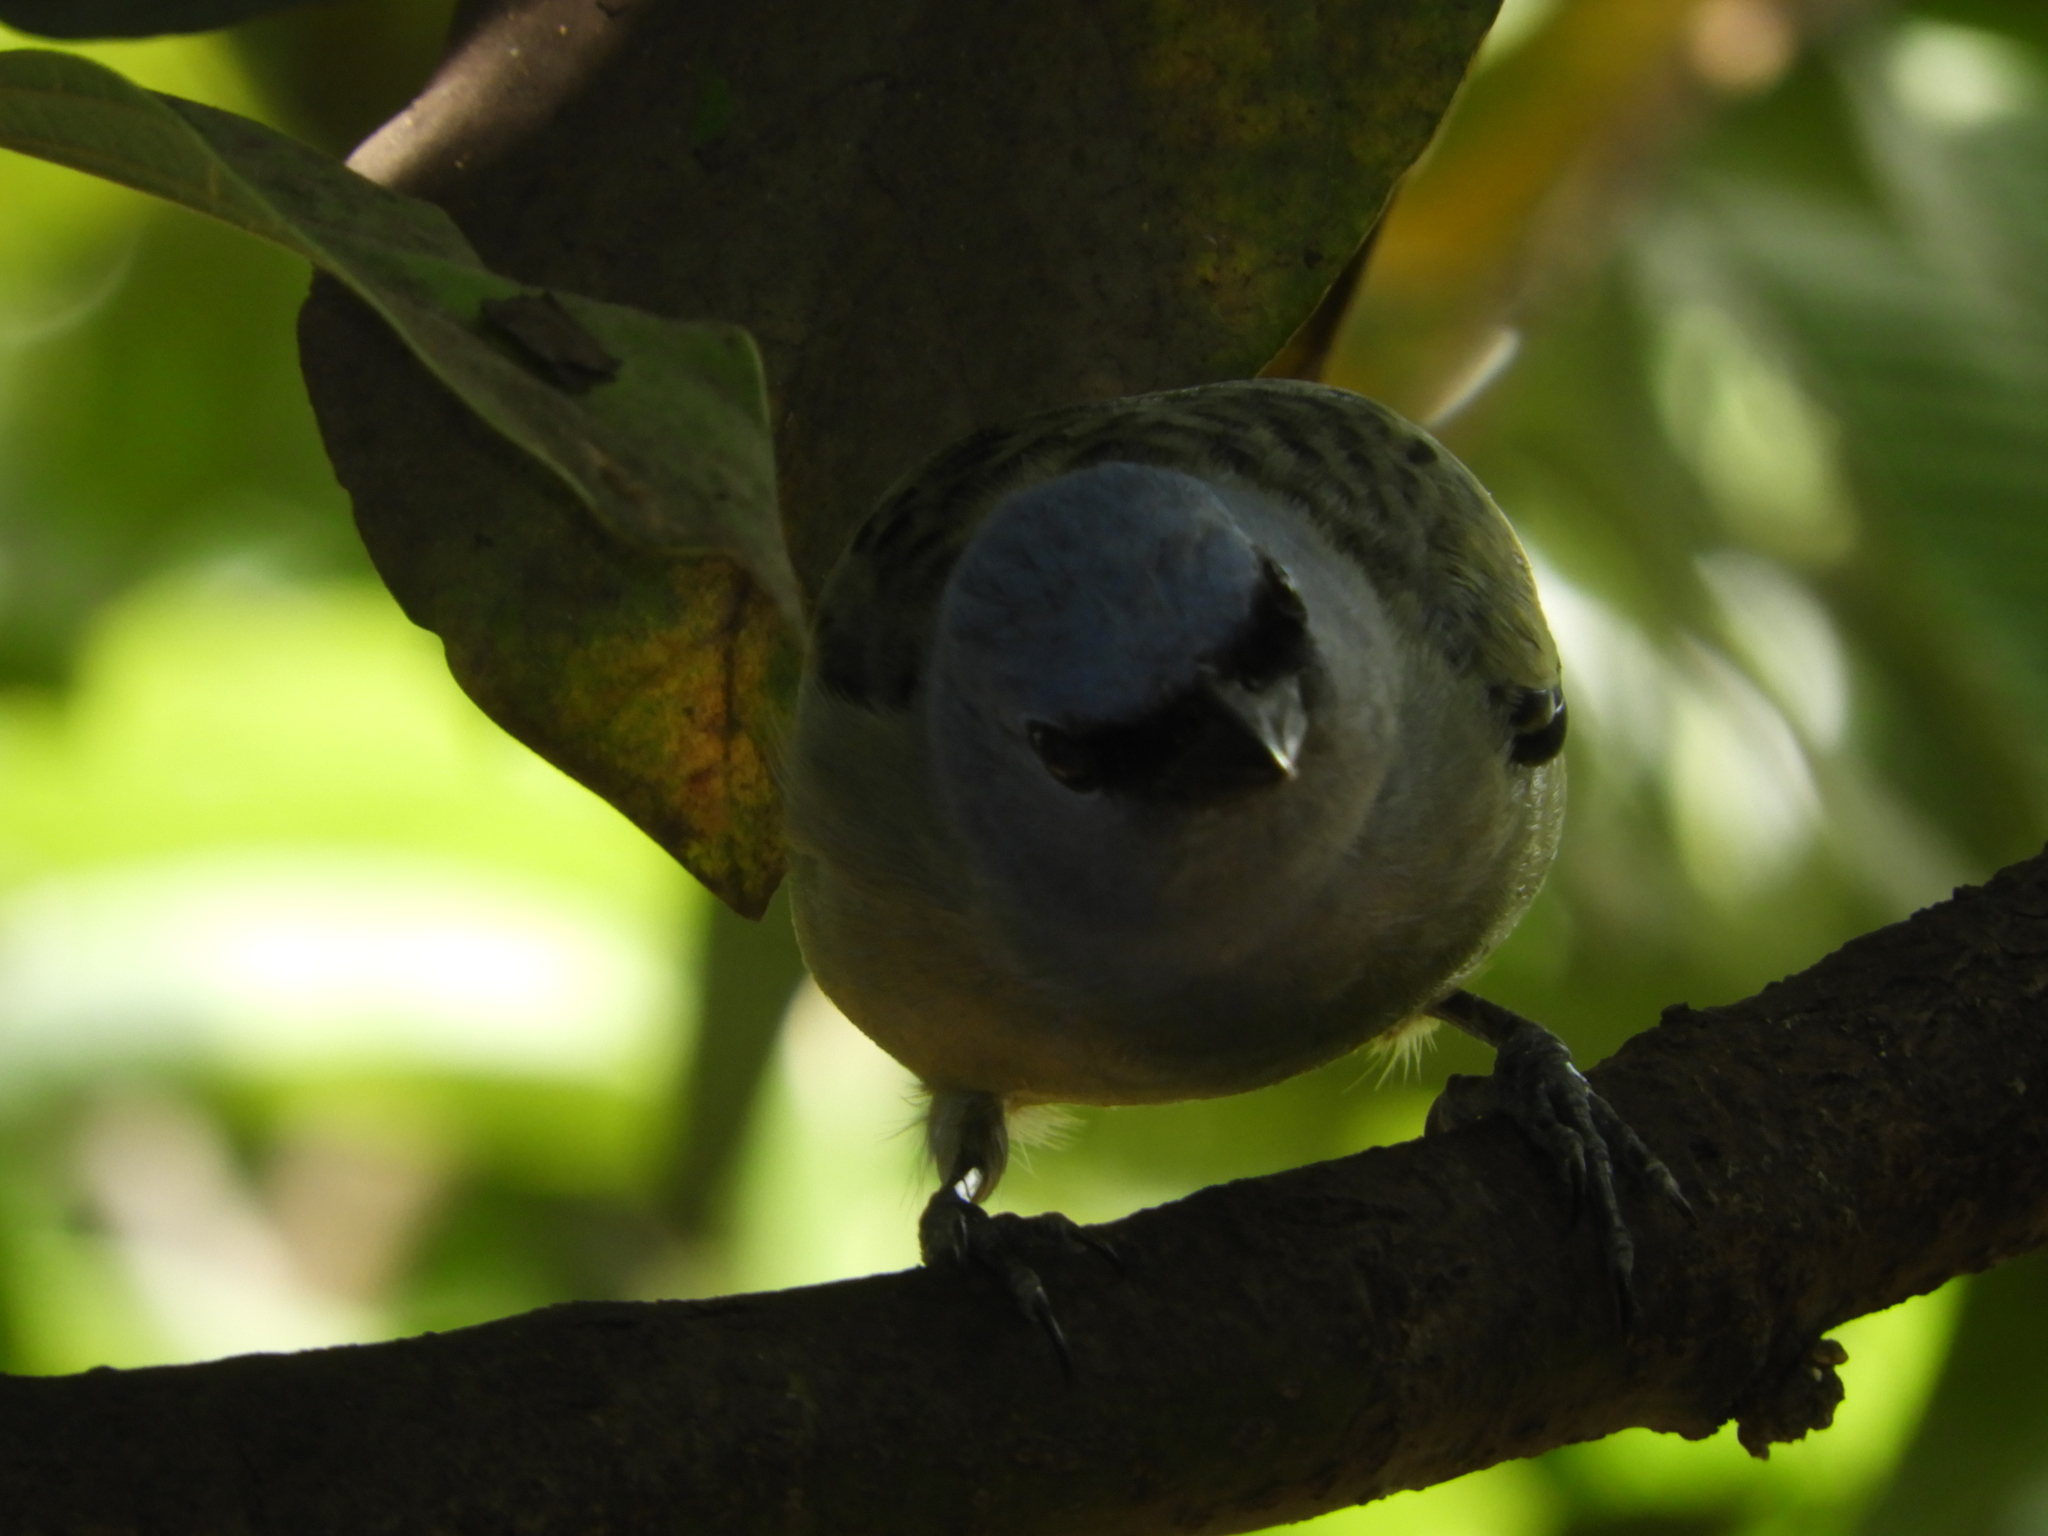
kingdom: Animalia
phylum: Chordata
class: Aves
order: Passeriformes
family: Thraupidae
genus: Thraupis
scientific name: Thraupis abbas
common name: Yellow-winged tanager
